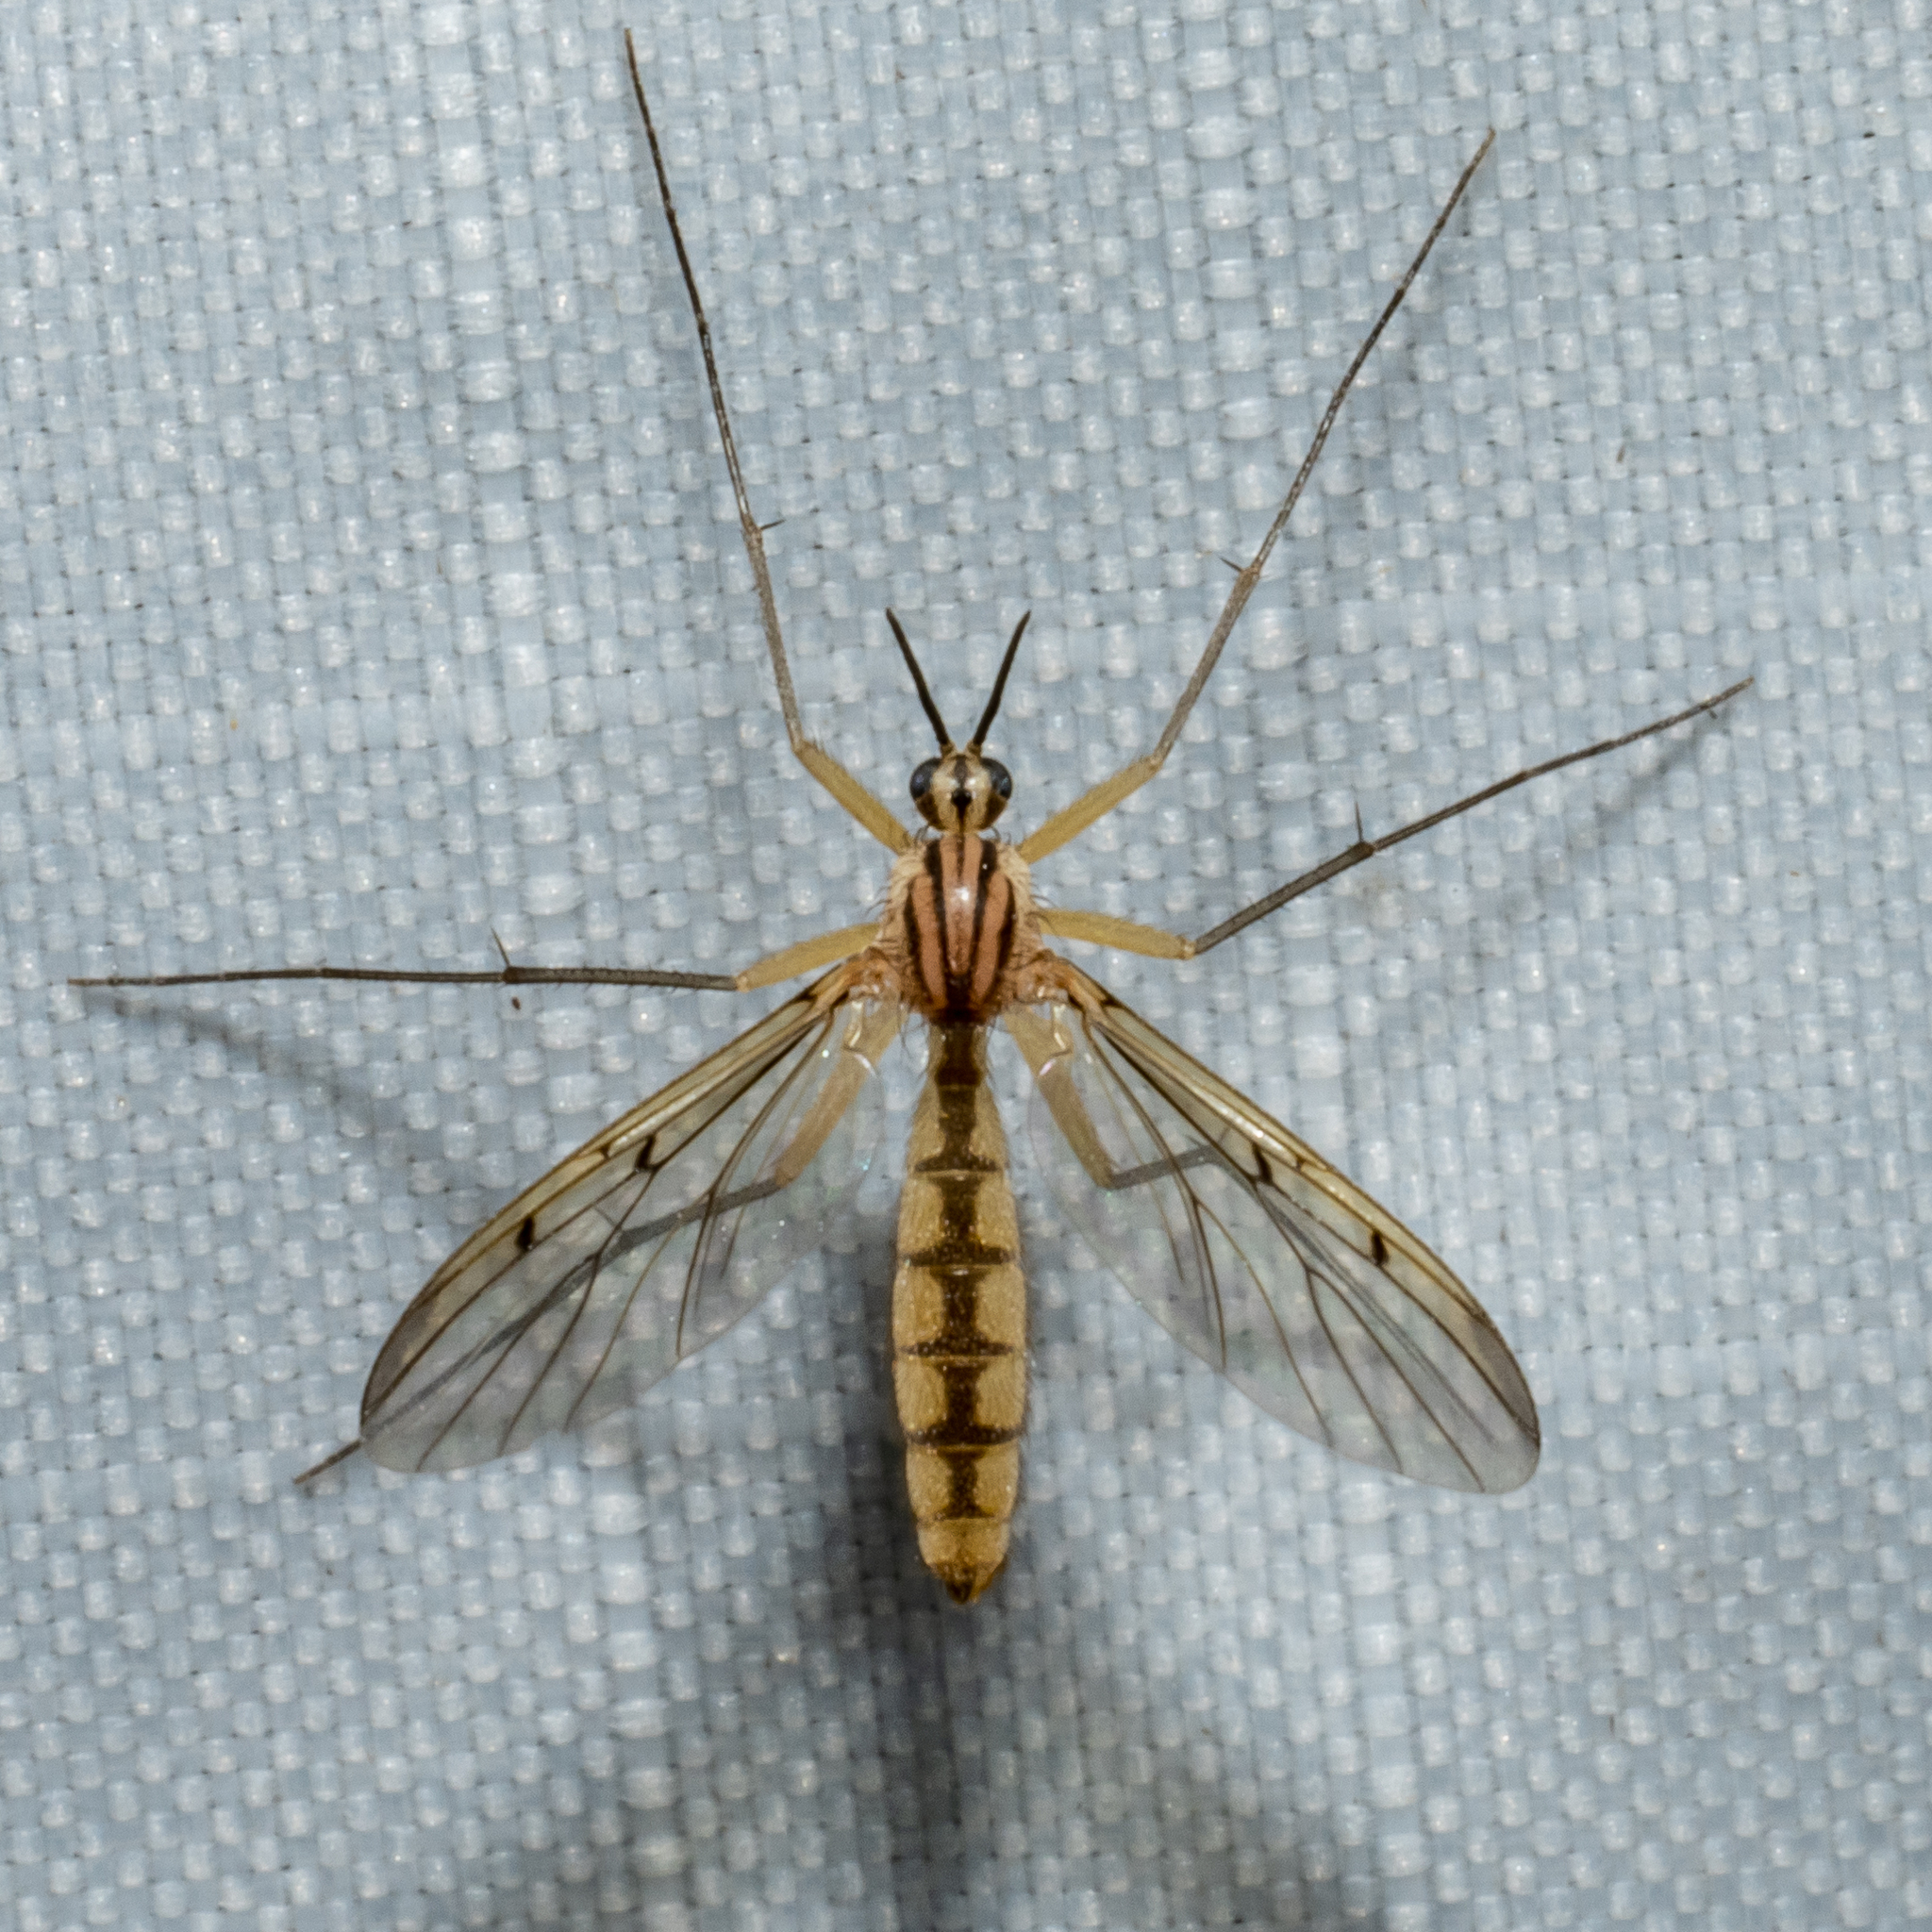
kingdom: Animalia
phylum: Arthropoda
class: Insecta
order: Diptera
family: Mycetophilidae
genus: Neoempheria
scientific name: Neoempheria balioptera
